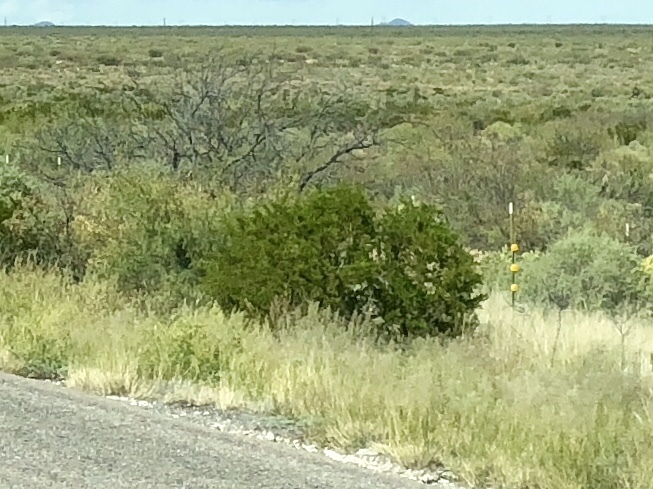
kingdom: Plantae
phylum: Tracheophyta
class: Magnoliopsida
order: Zygophyllales
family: Zygophyllaceae
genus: Larrea
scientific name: Larrea tridentata
